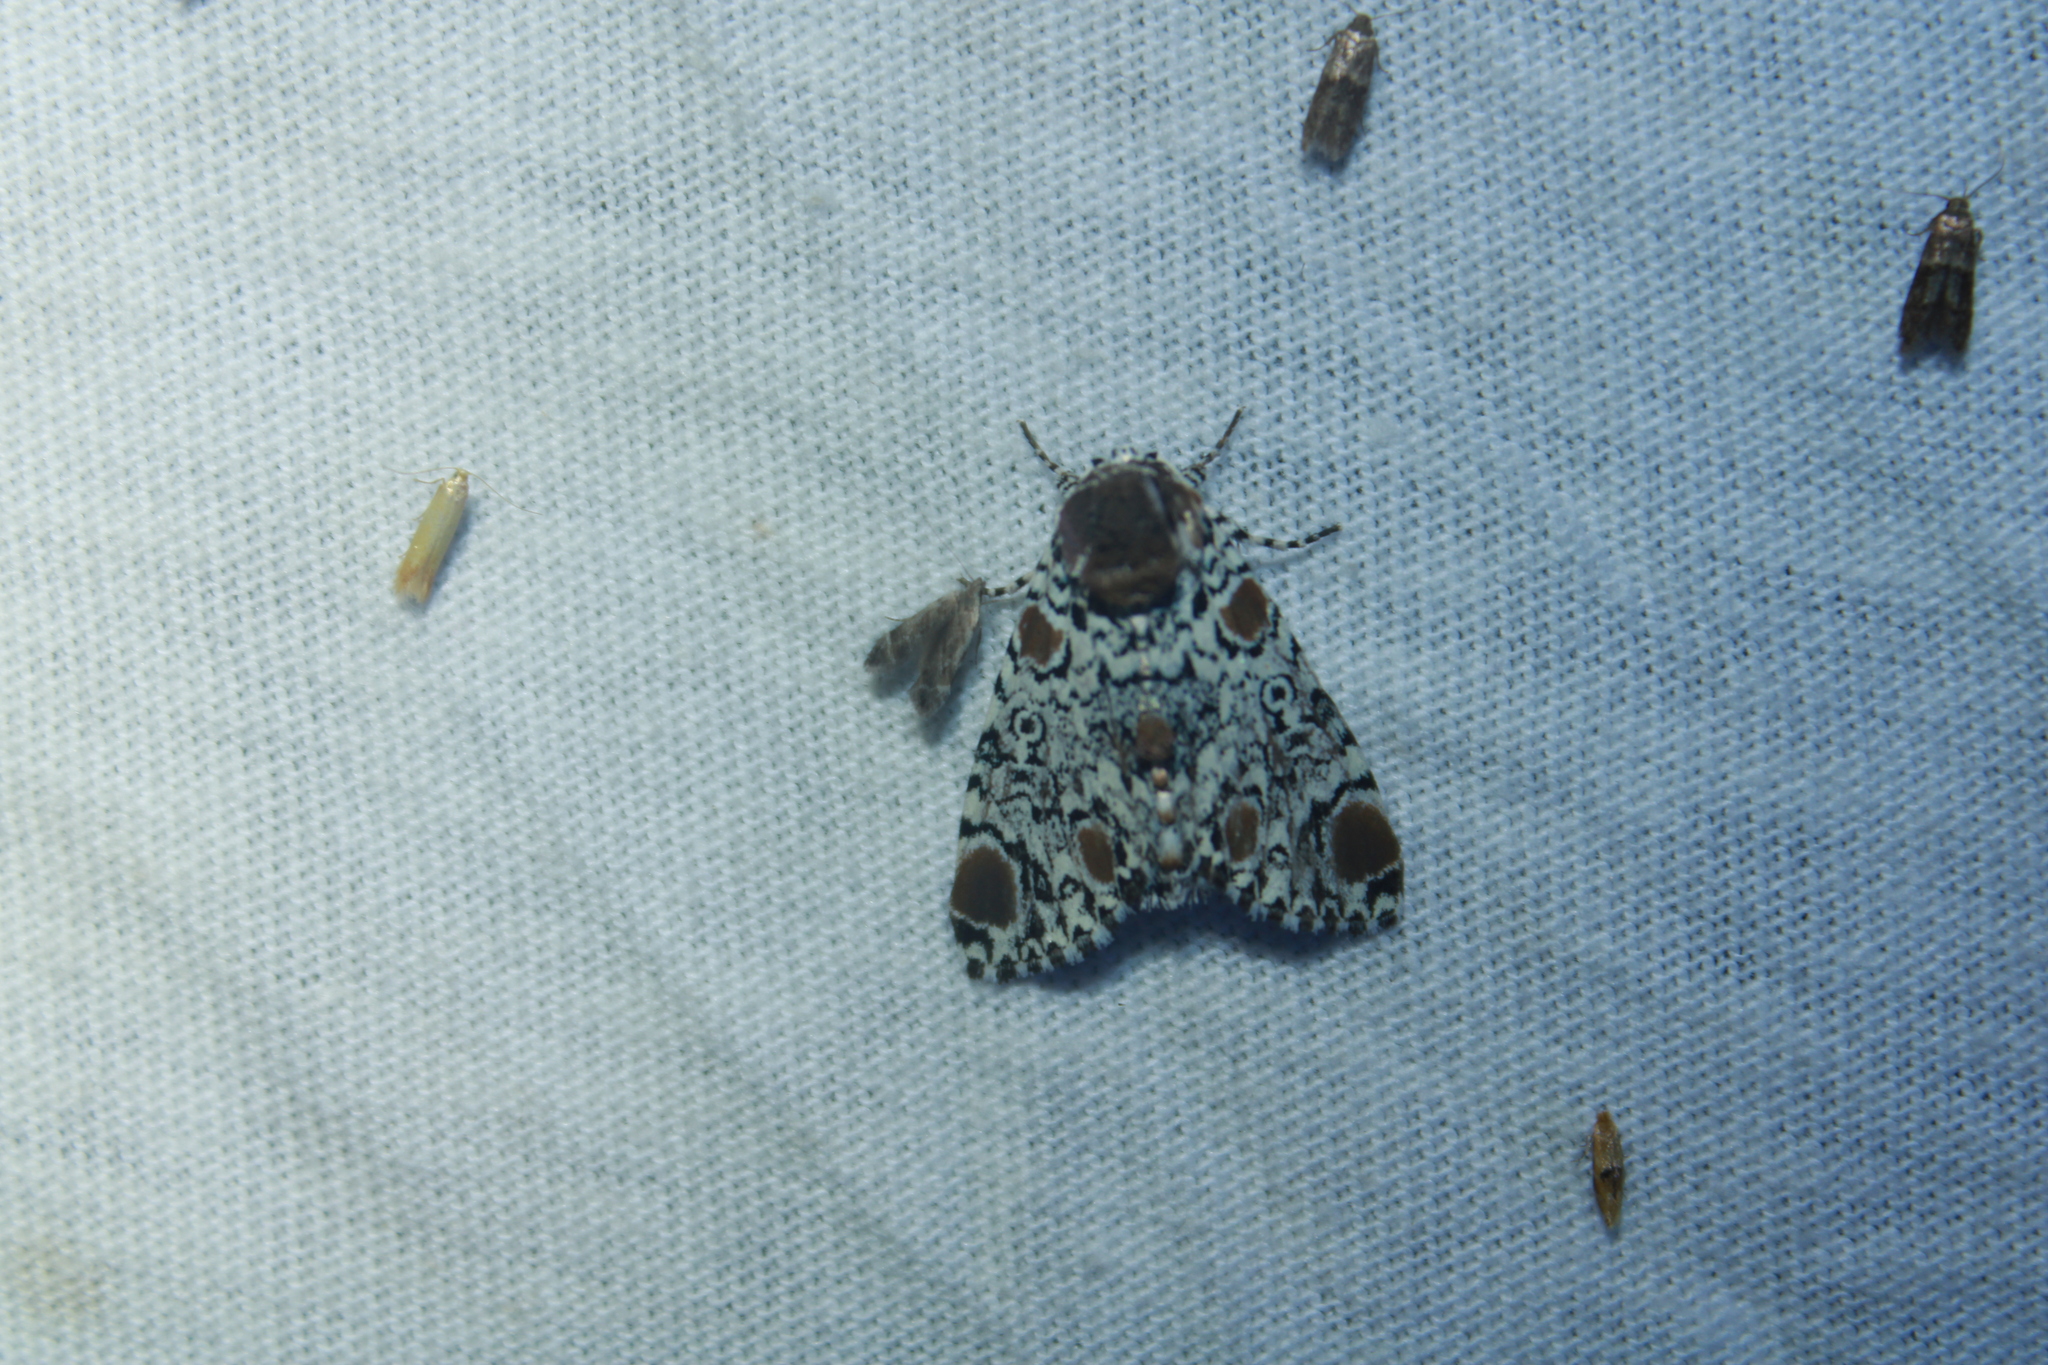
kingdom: Animalia
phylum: Arthropoda
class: Insecta
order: Lepidoptera
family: Noctuidae
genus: Harrisimemna
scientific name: Harrisimemna trisignata
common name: Harris threespot
